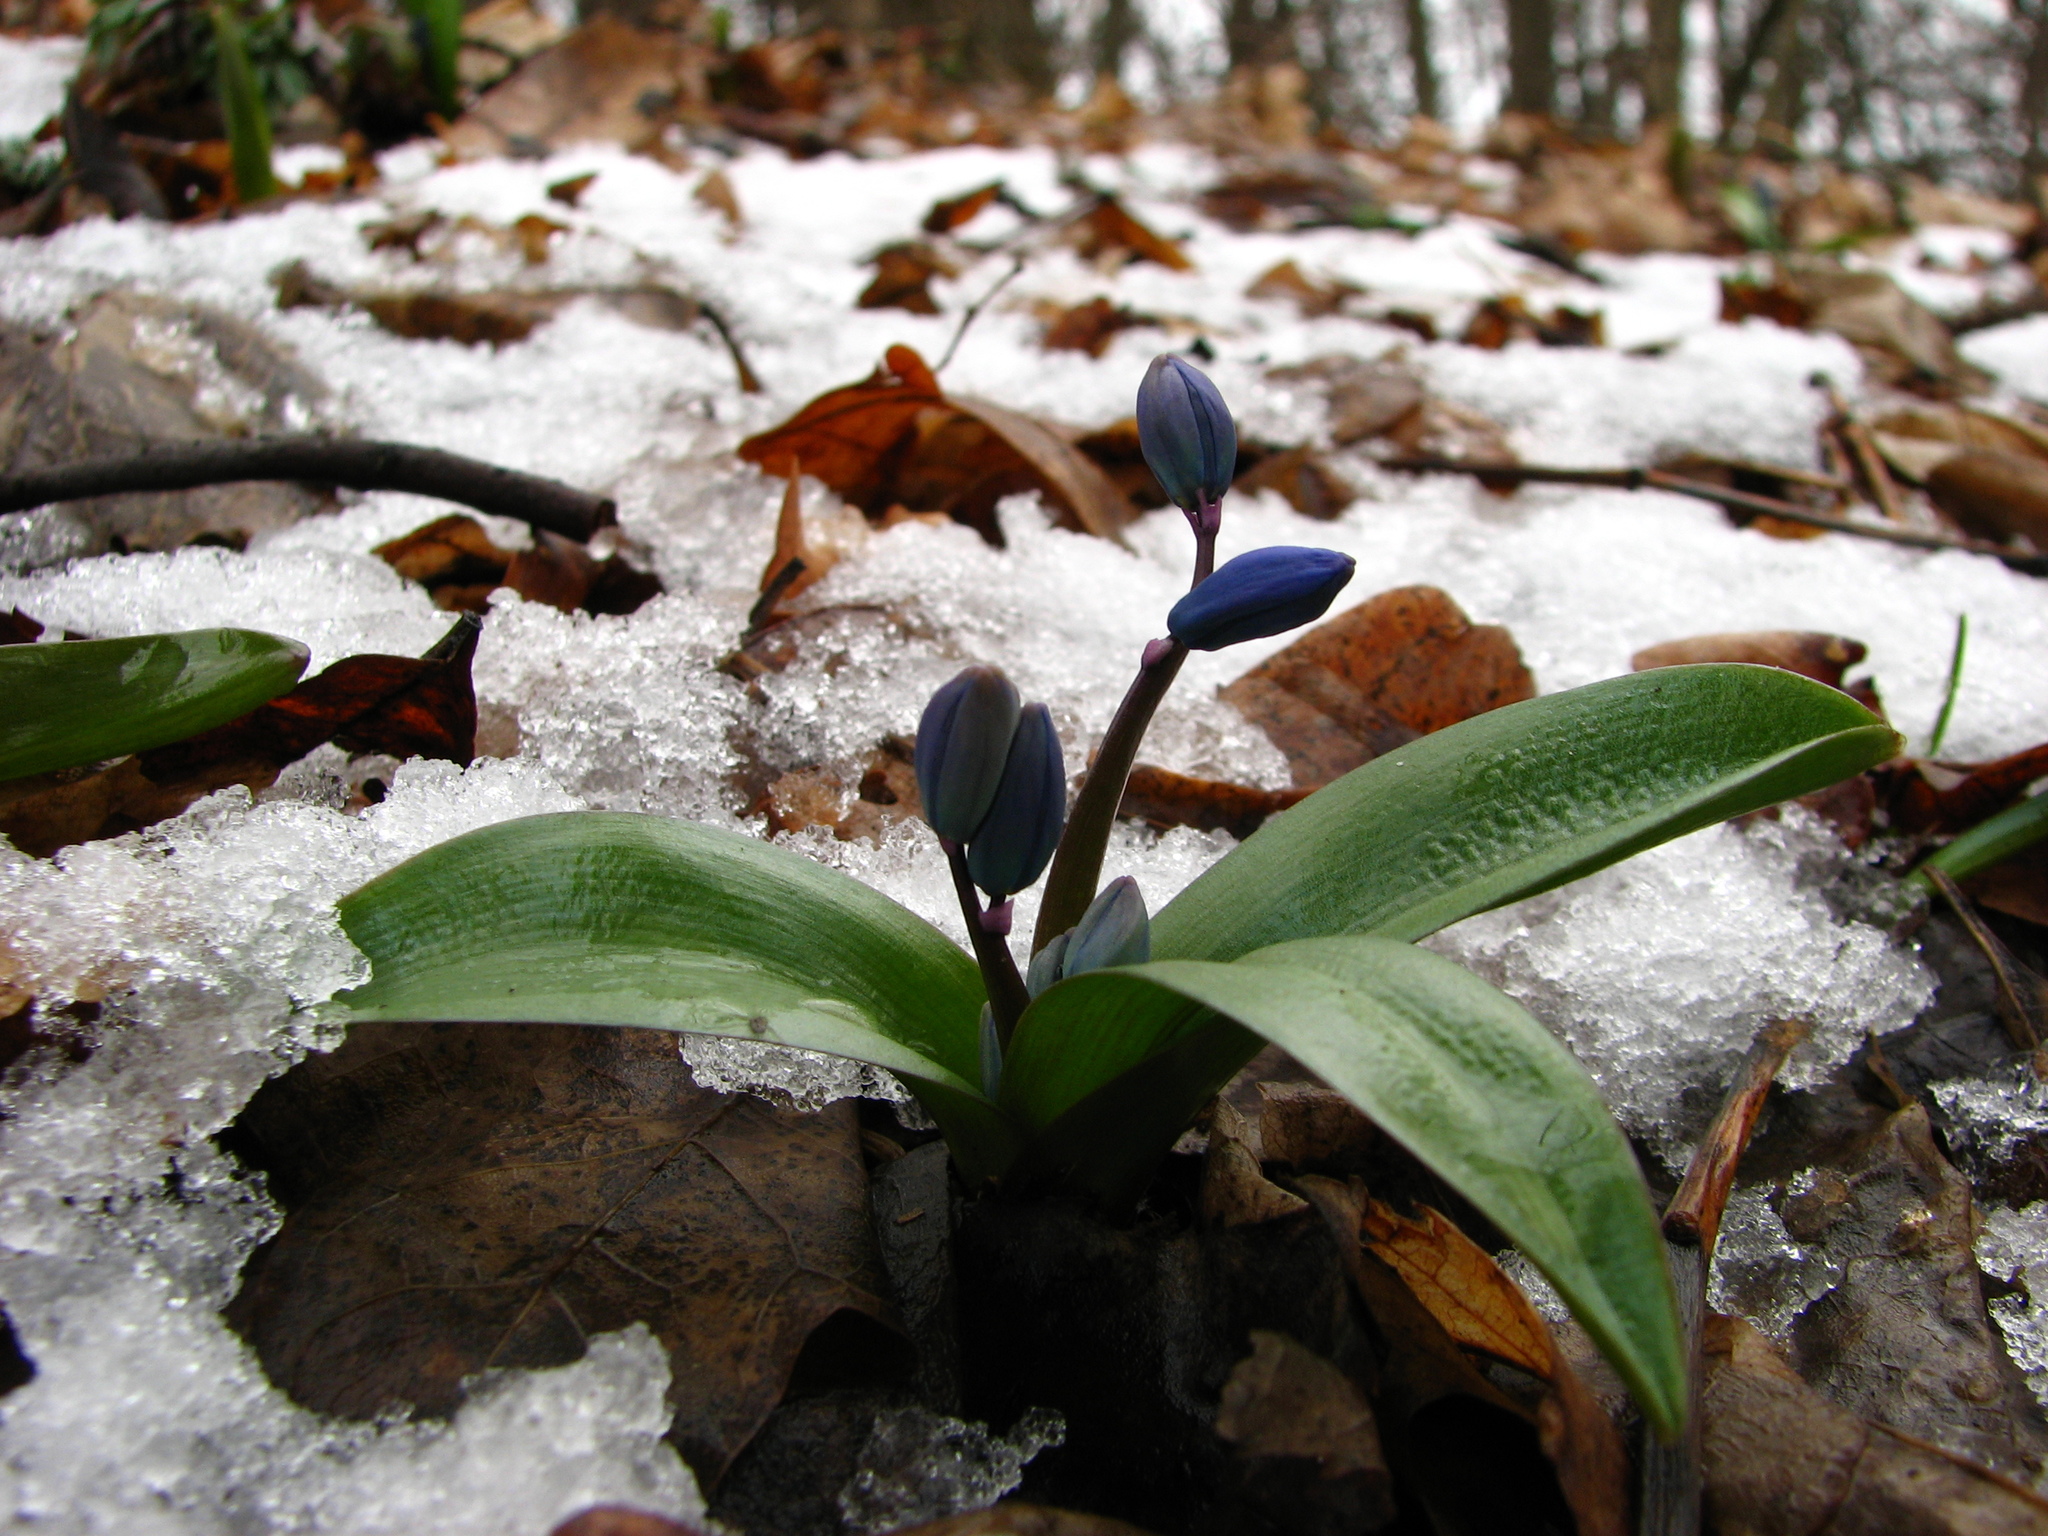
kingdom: Plantae
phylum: Tracheophyta
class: Liliopsida
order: Asparagales
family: Asparagaceae
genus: Scilla
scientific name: Scilla siberica
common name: Siberian squill
